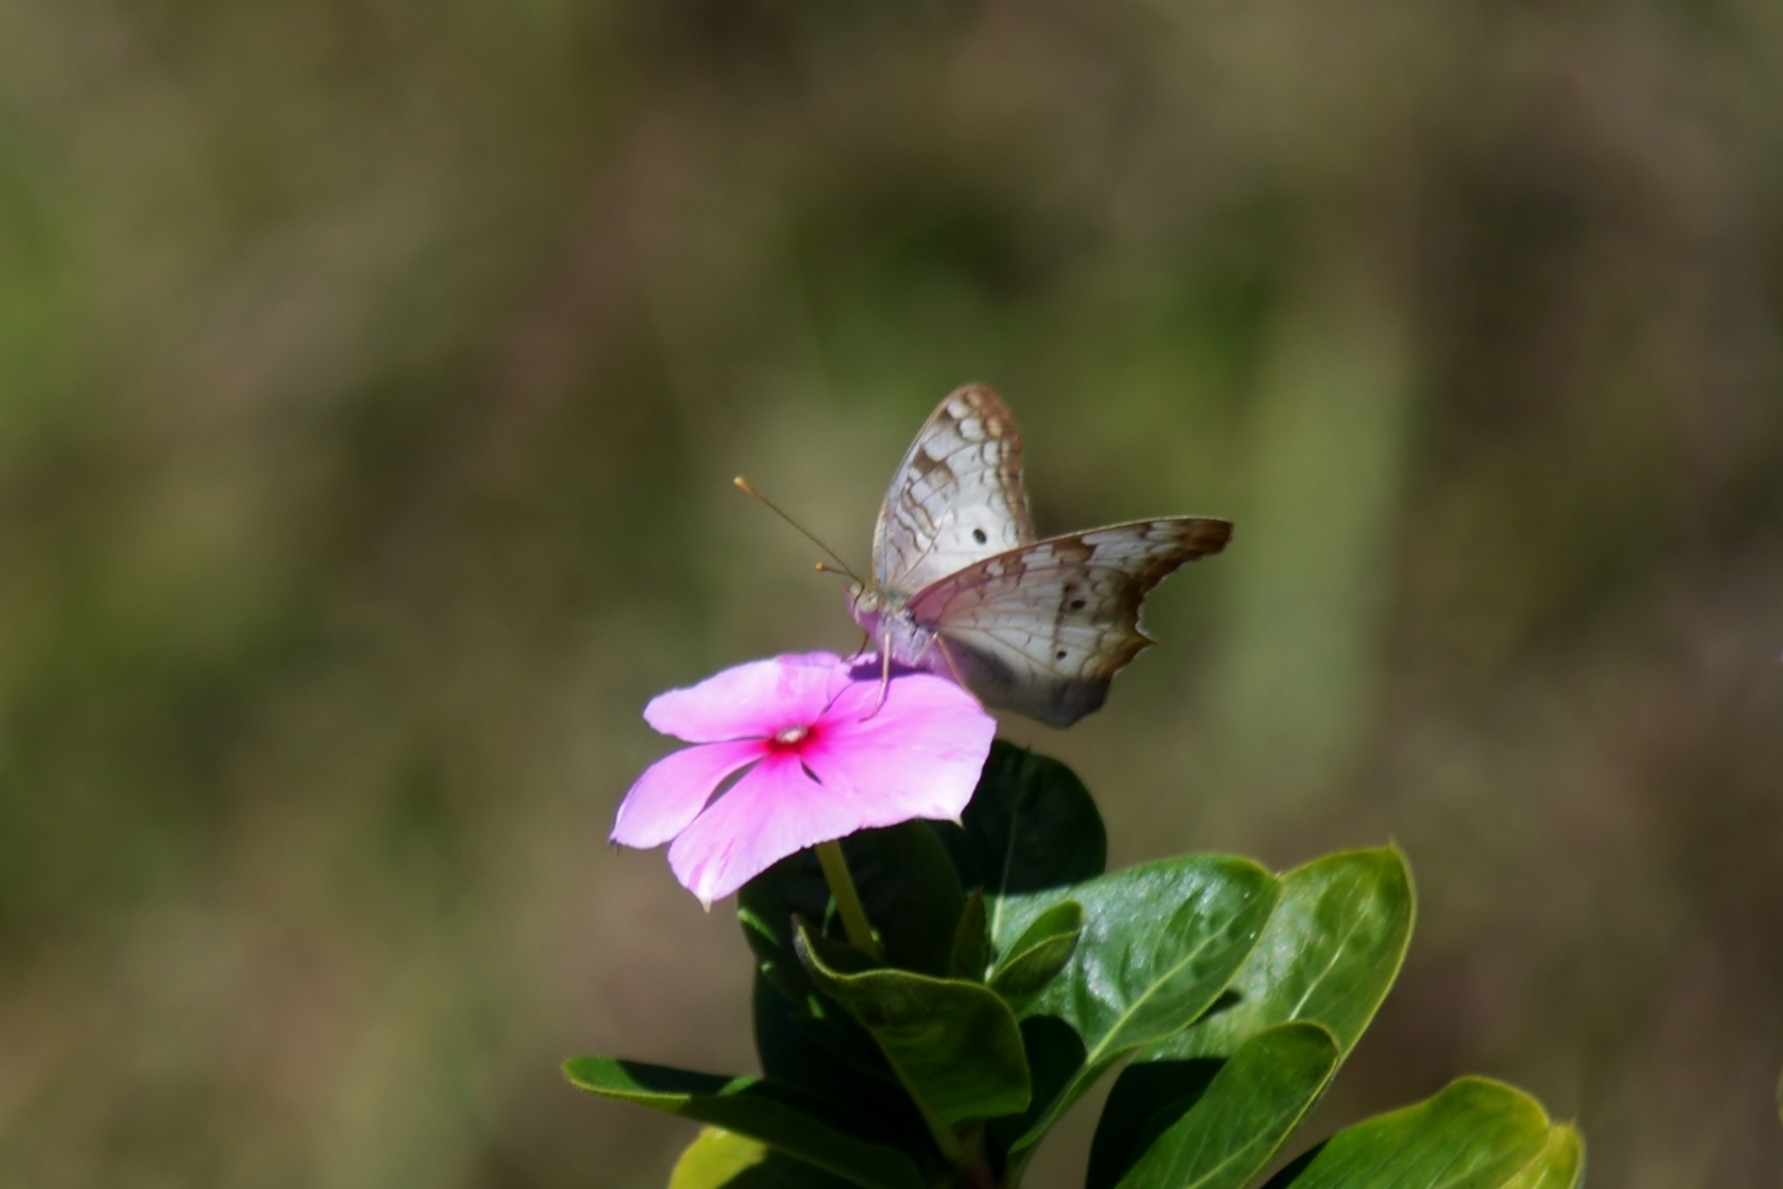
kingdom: Animalia
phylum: Arthropoda
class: Insecta
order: Lepidoptera
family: Nymphalidae
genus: Anartia
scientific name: Anartia jatrophae
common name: White peacock
